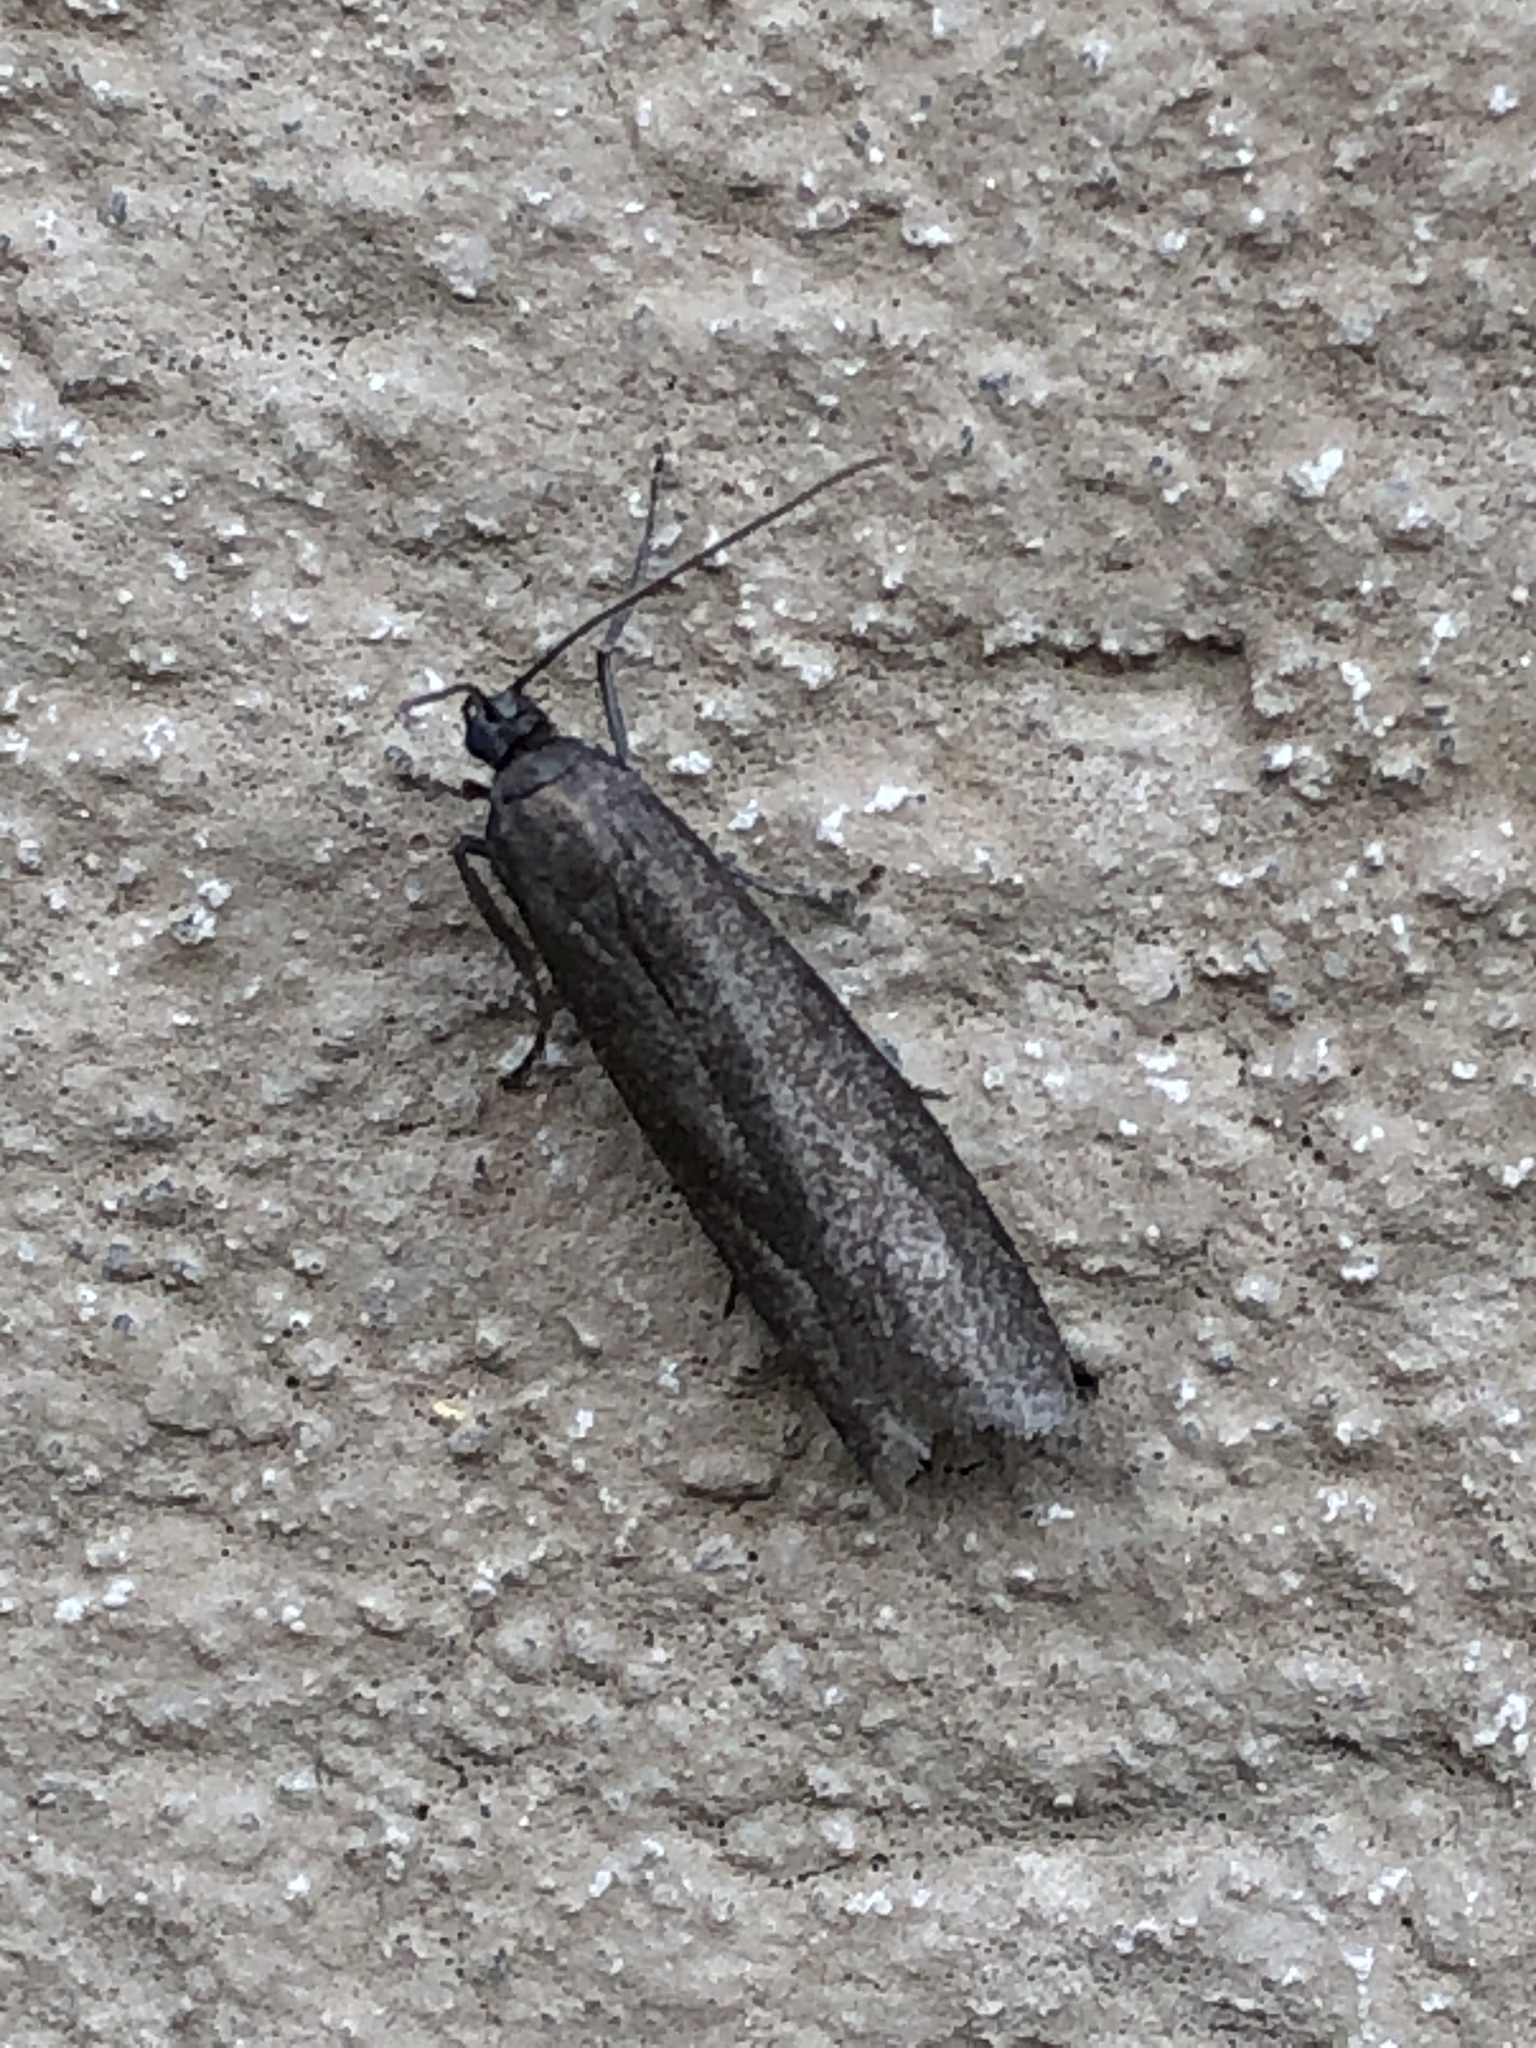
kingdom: Animalia
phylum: Arthropoda
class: Insecta
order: Lepidoptera
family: Pyralidae
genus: Myelois
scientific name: Myelois tetricella
